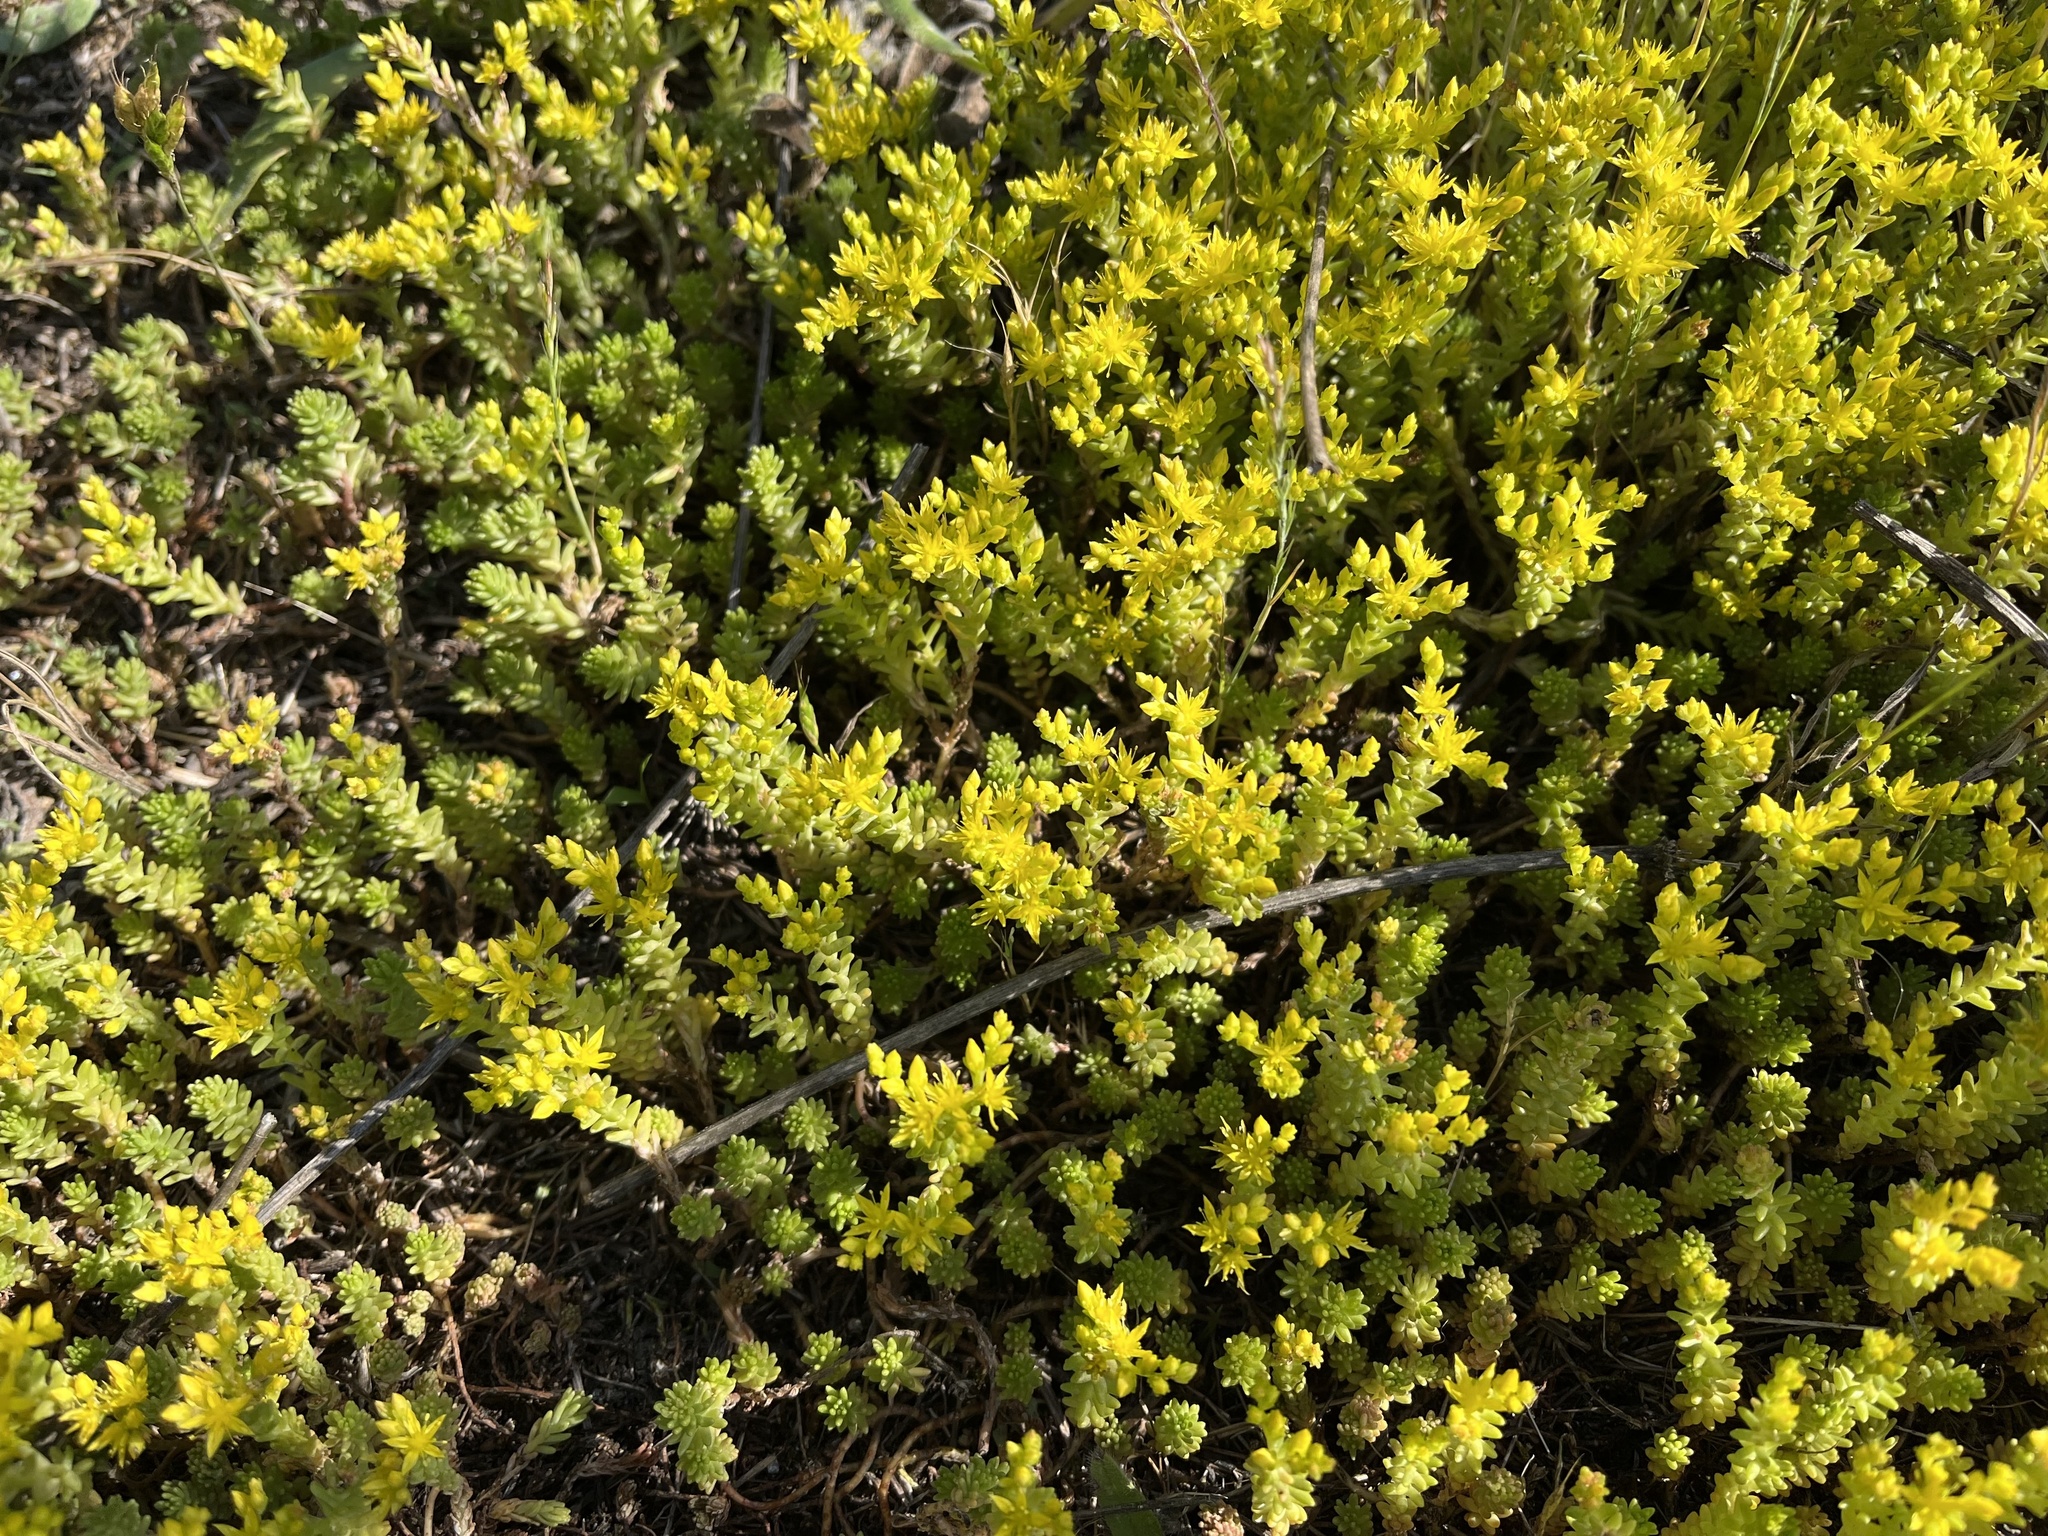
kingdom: Plantae
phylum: Tracheophyta
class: Magnoliopsida
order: Saxifragales
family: Crassulaceae
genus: Sedum
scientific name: Sedum sexangulare
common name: Tasteless stonecrop
